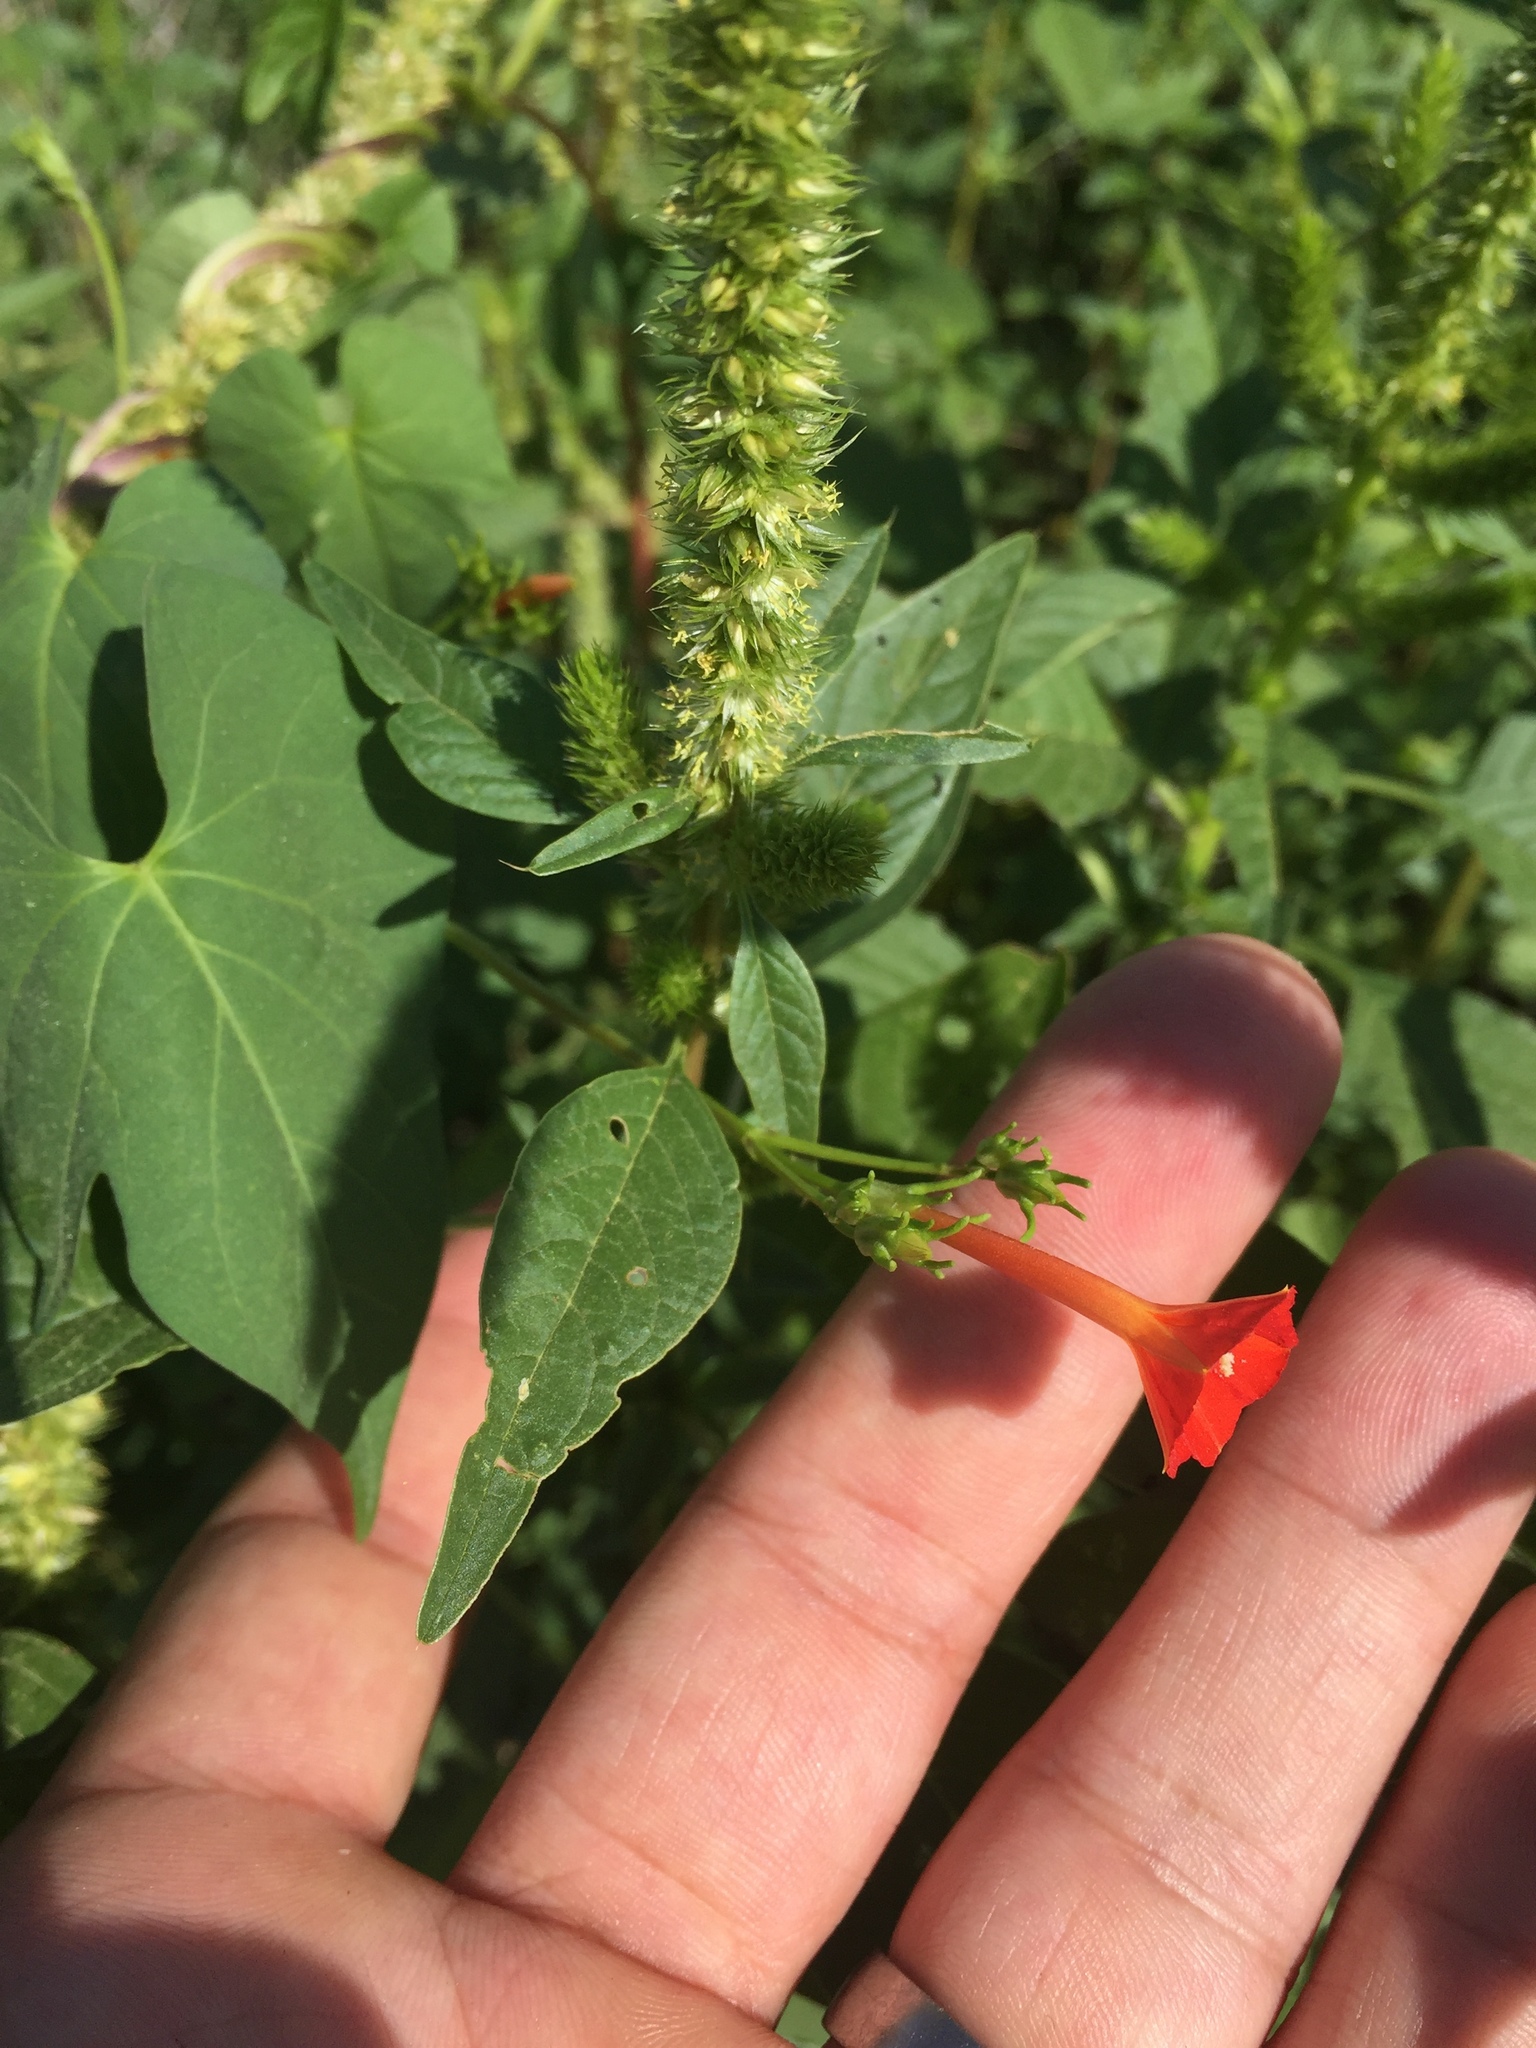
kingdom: Plantae
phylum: Tracheophyta
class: Magnoliopsida
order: Solanales
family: Convolvulaceae
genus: Ipomoea
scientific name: Ipomoea cristulata
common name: Trans-pecos morning-glory
